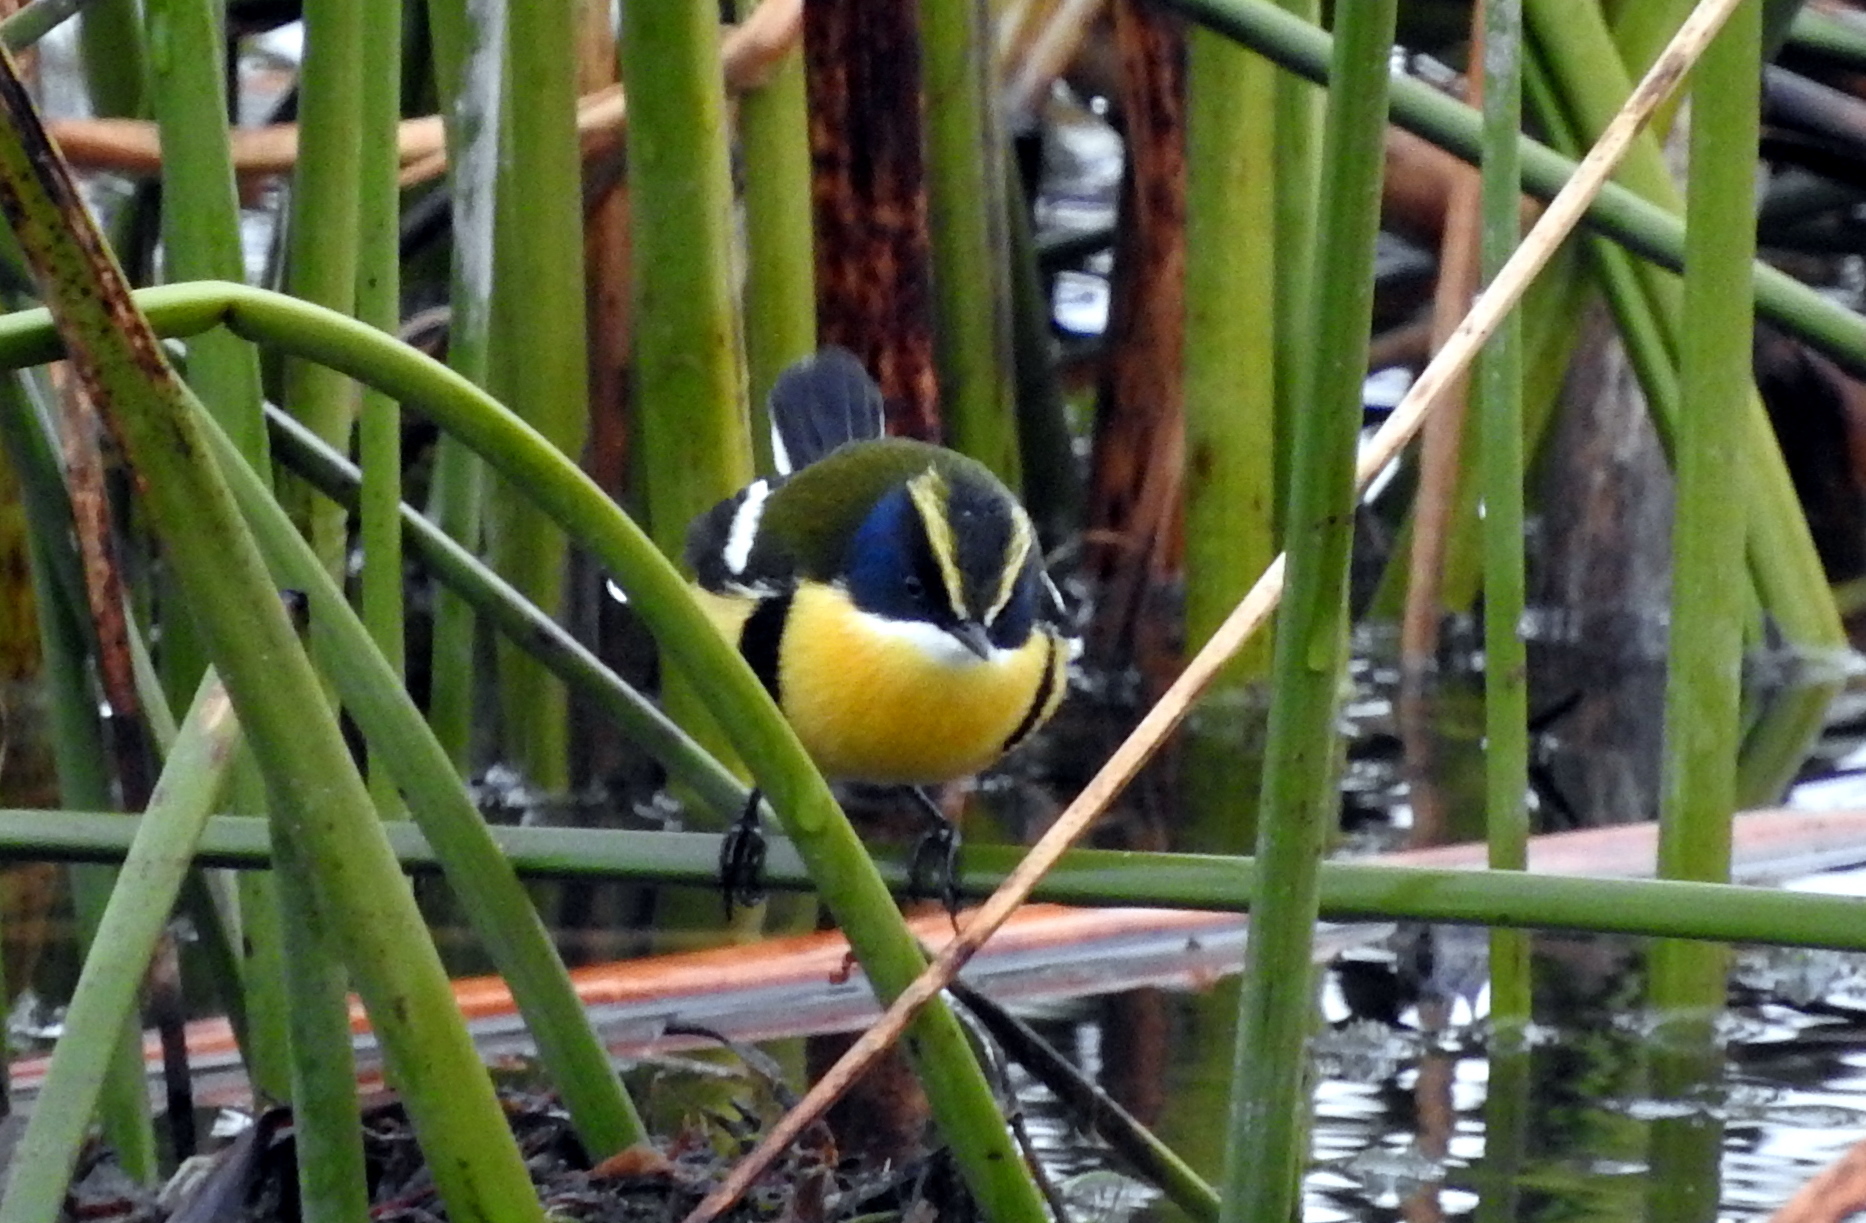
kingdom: Animalia
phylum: Chordata
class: Aves
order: Passeriformes
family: Tyrannidae
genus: Tachuris
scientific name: Tachuris rubrigastra
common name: Many-colored rush tyrant
